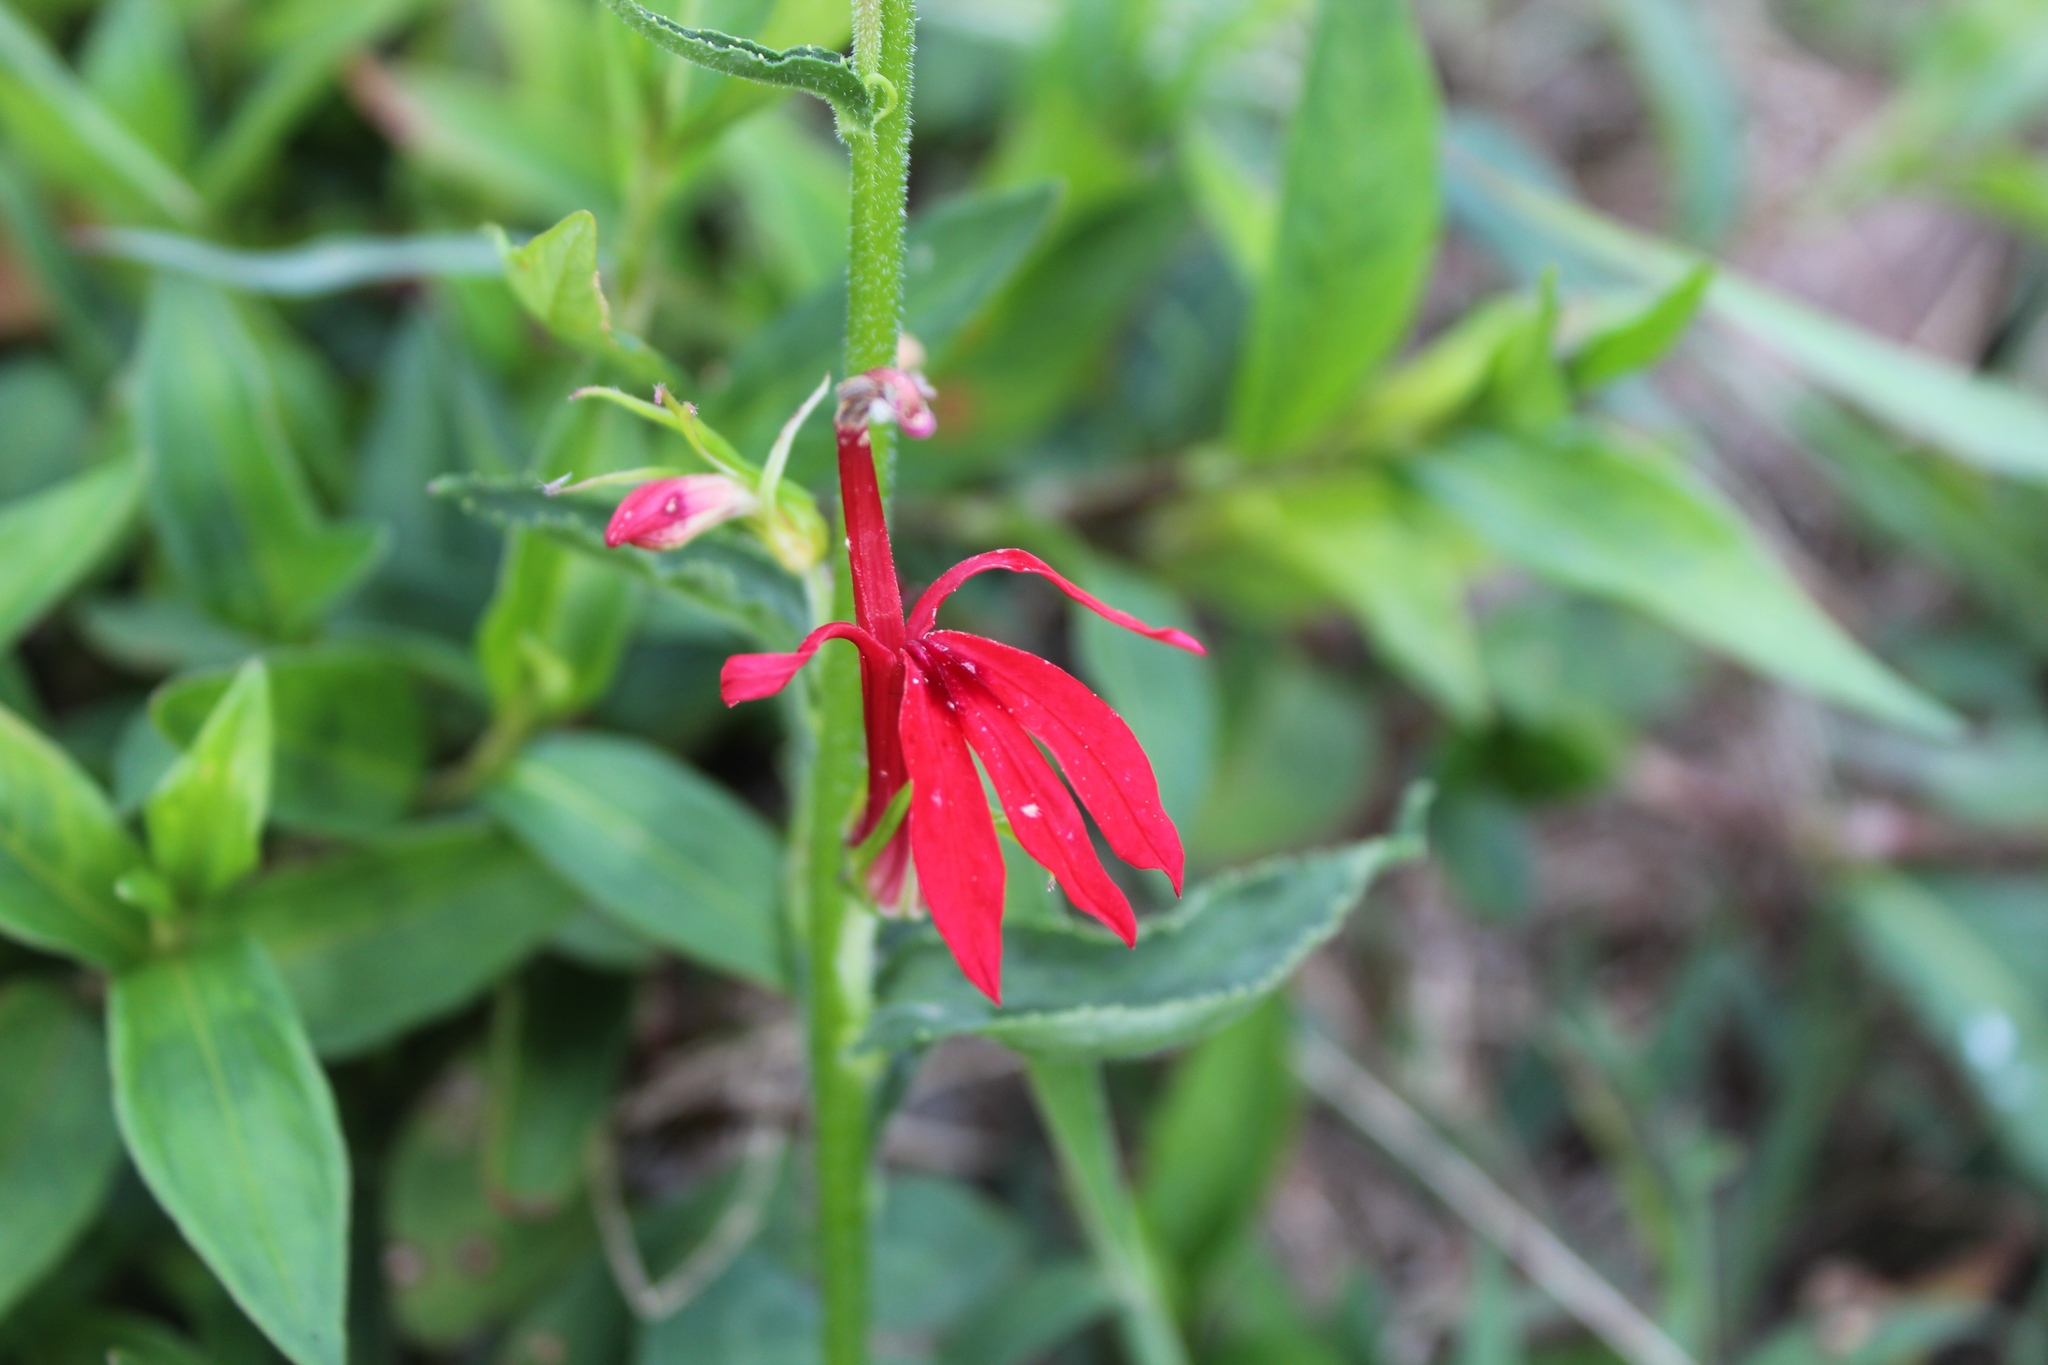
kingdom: Plantae
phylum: Tracheophyta
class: Magnoliopsida
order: Asterales
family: Campanulaceae
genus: Lobelia
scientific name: Lobelia cardinalis
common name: Cardinal flower
